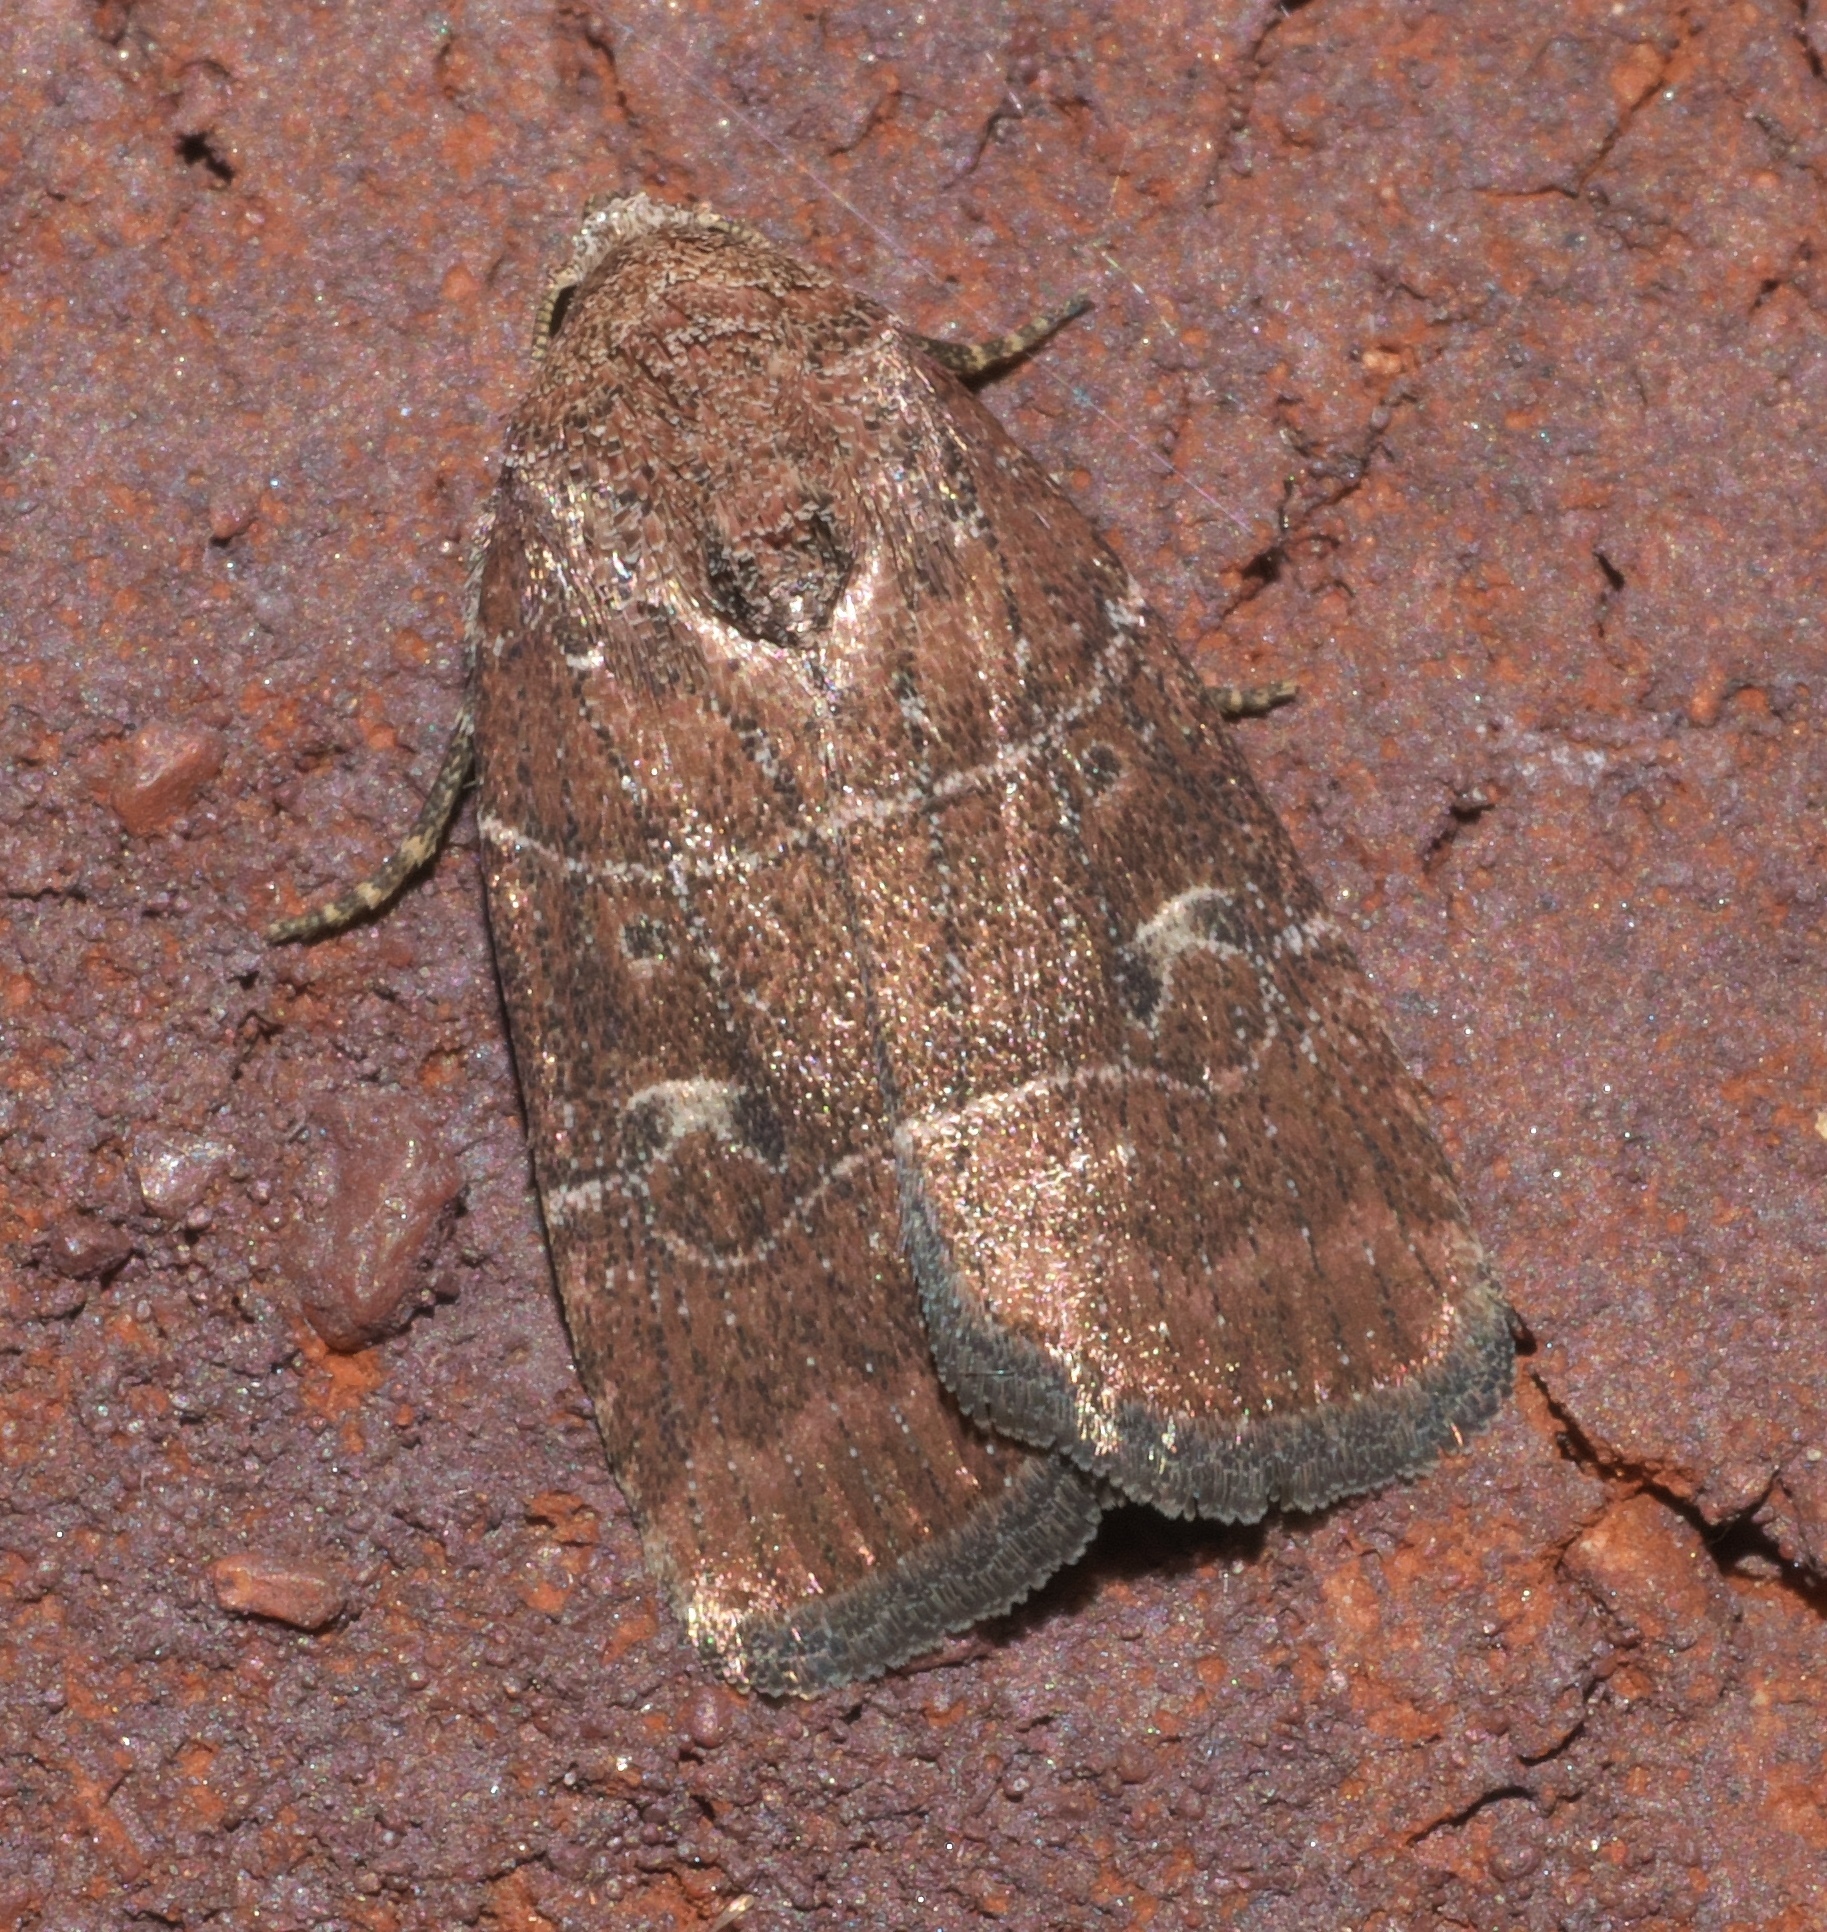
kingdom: Animalia
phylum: Arthropoda
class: Insecta
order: Lepidoptera
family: Noctuidae
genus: Elaphria
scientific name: Elaphria grata
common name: Grateful midget moth
